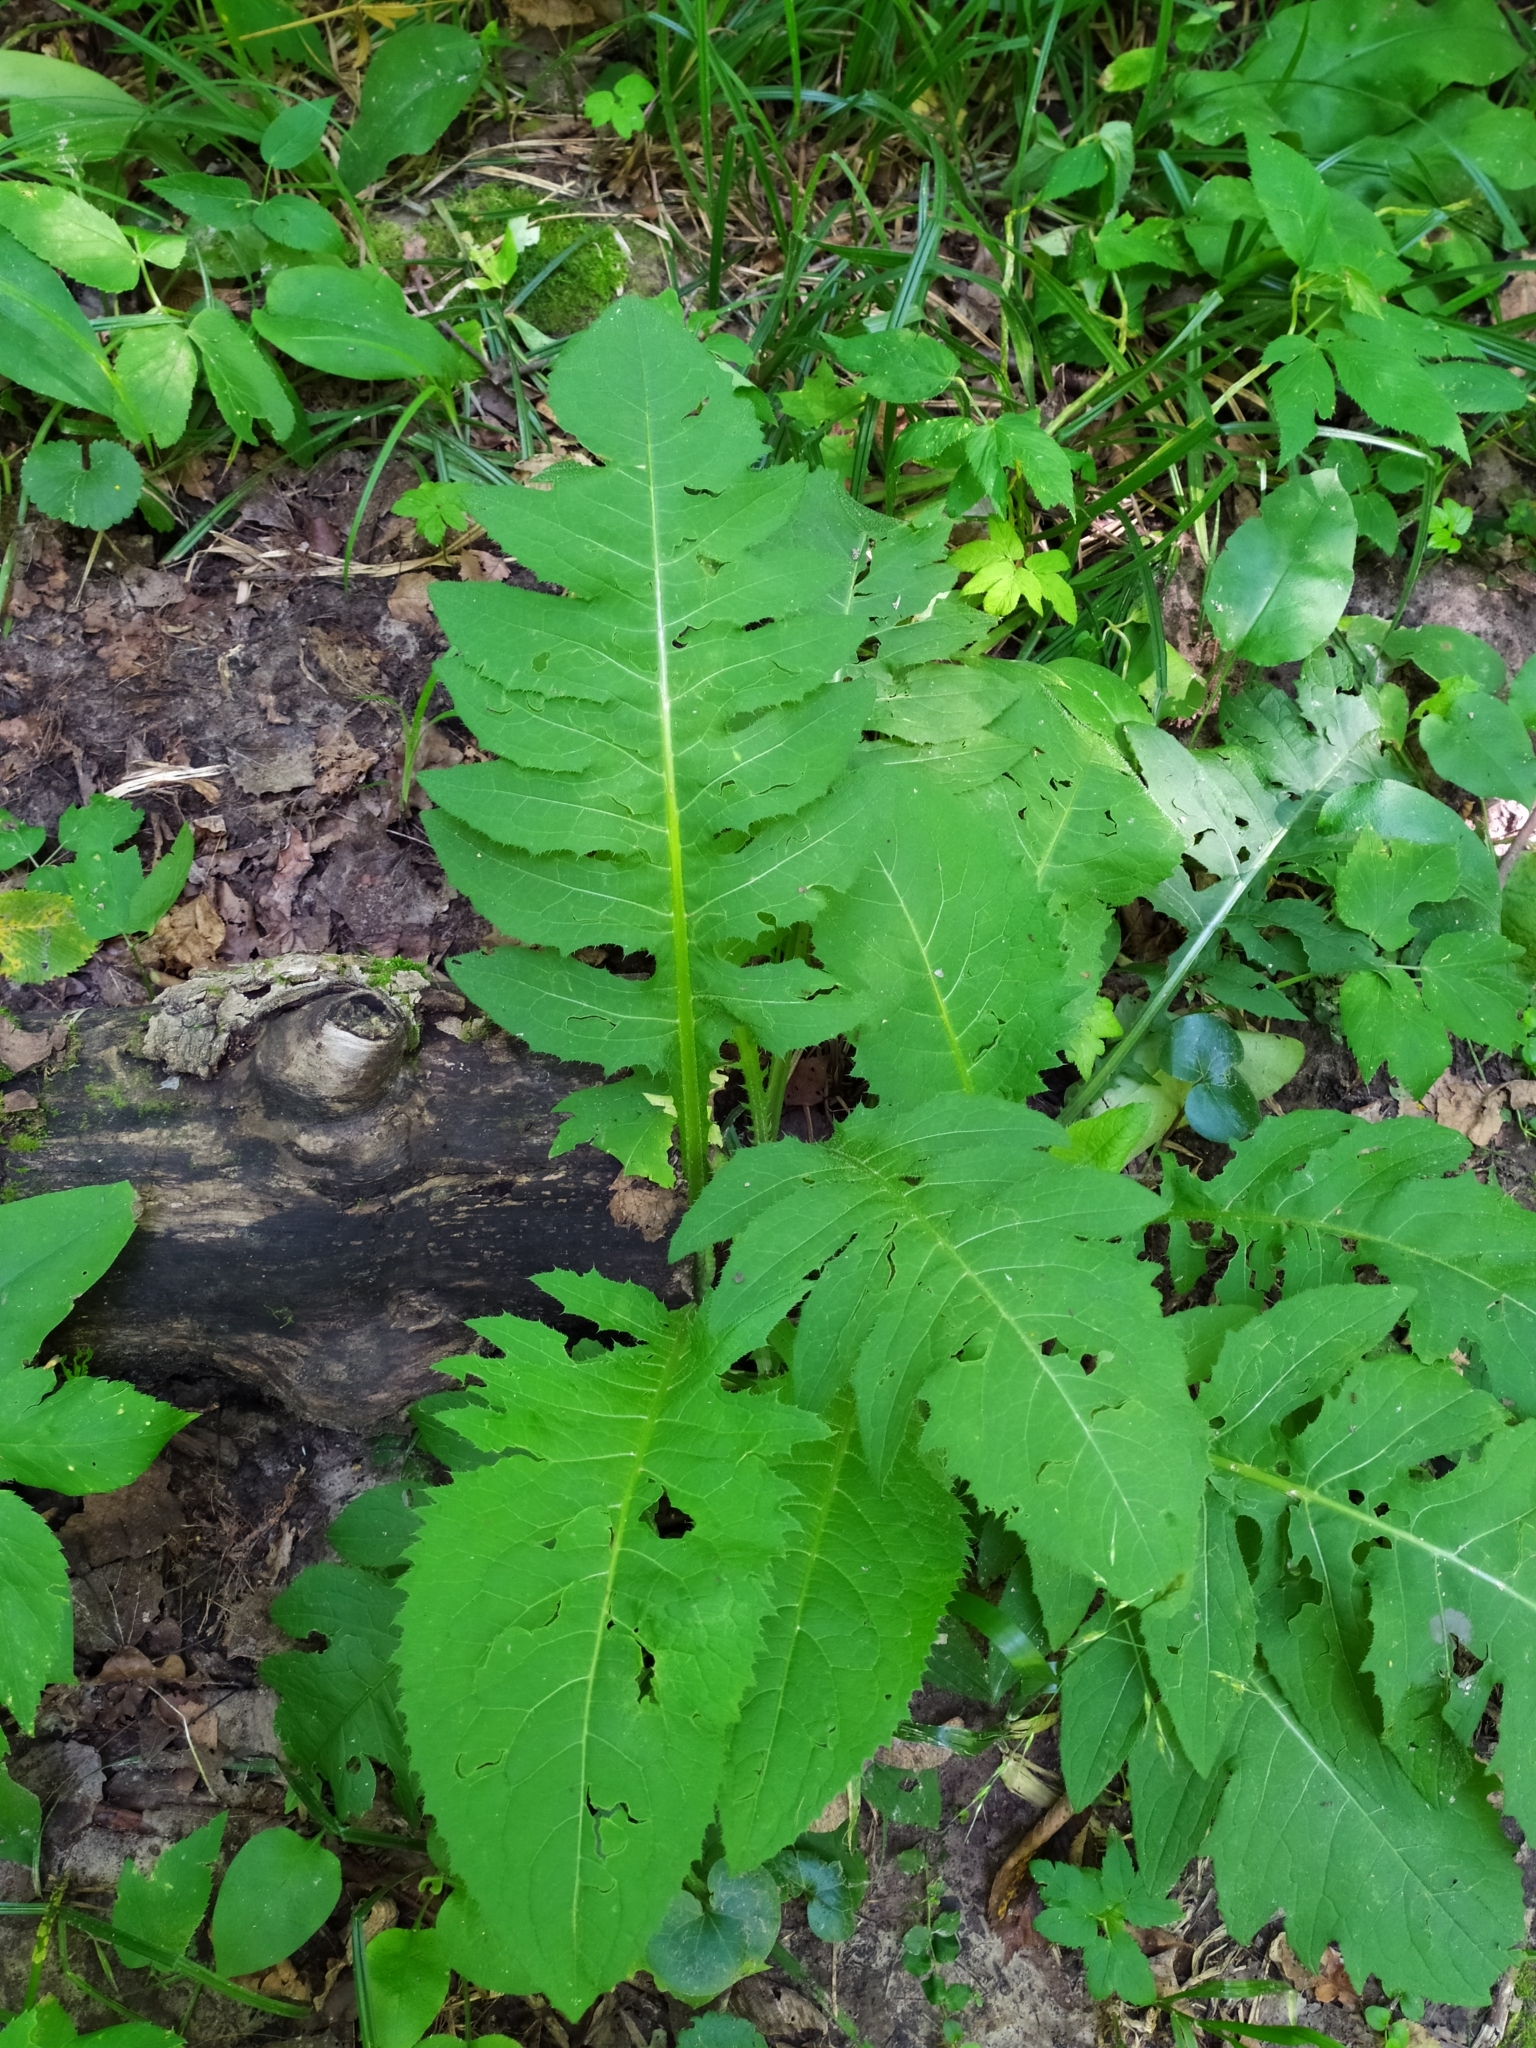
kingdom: Plantae
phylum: Tracheophyta
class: Magnoliopsida
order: Asterales
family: Asteraceae
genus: Cirsium
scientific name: Cirsium oleraceum
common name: Cabbage thistle
